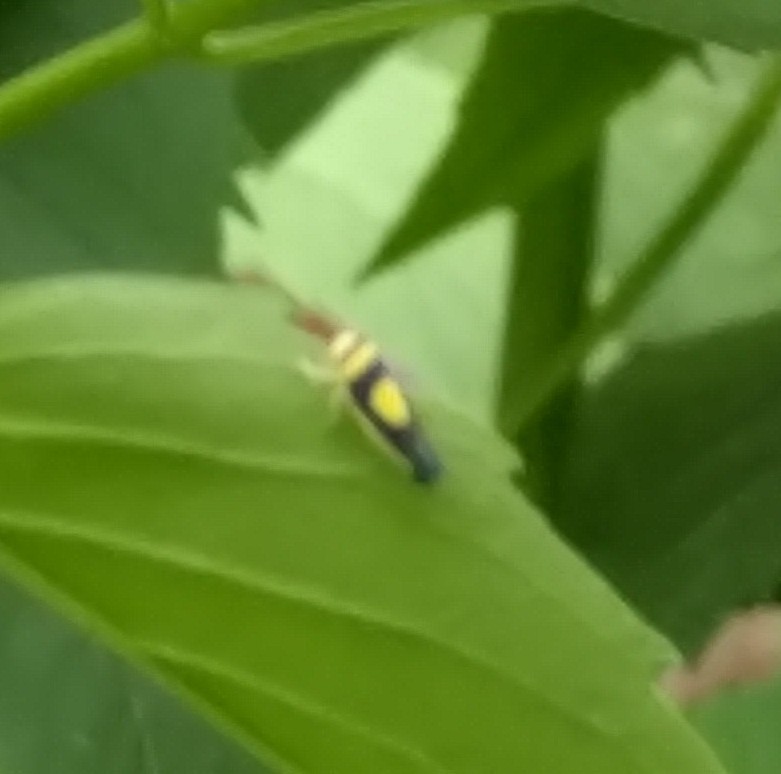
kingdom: Animalia
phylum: Arthropoda
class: Insecta
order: Hemiptera
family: Cicadellidae
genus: Colladonus
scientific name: Colladonus clitellarius
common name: The saddleback leafhopper
